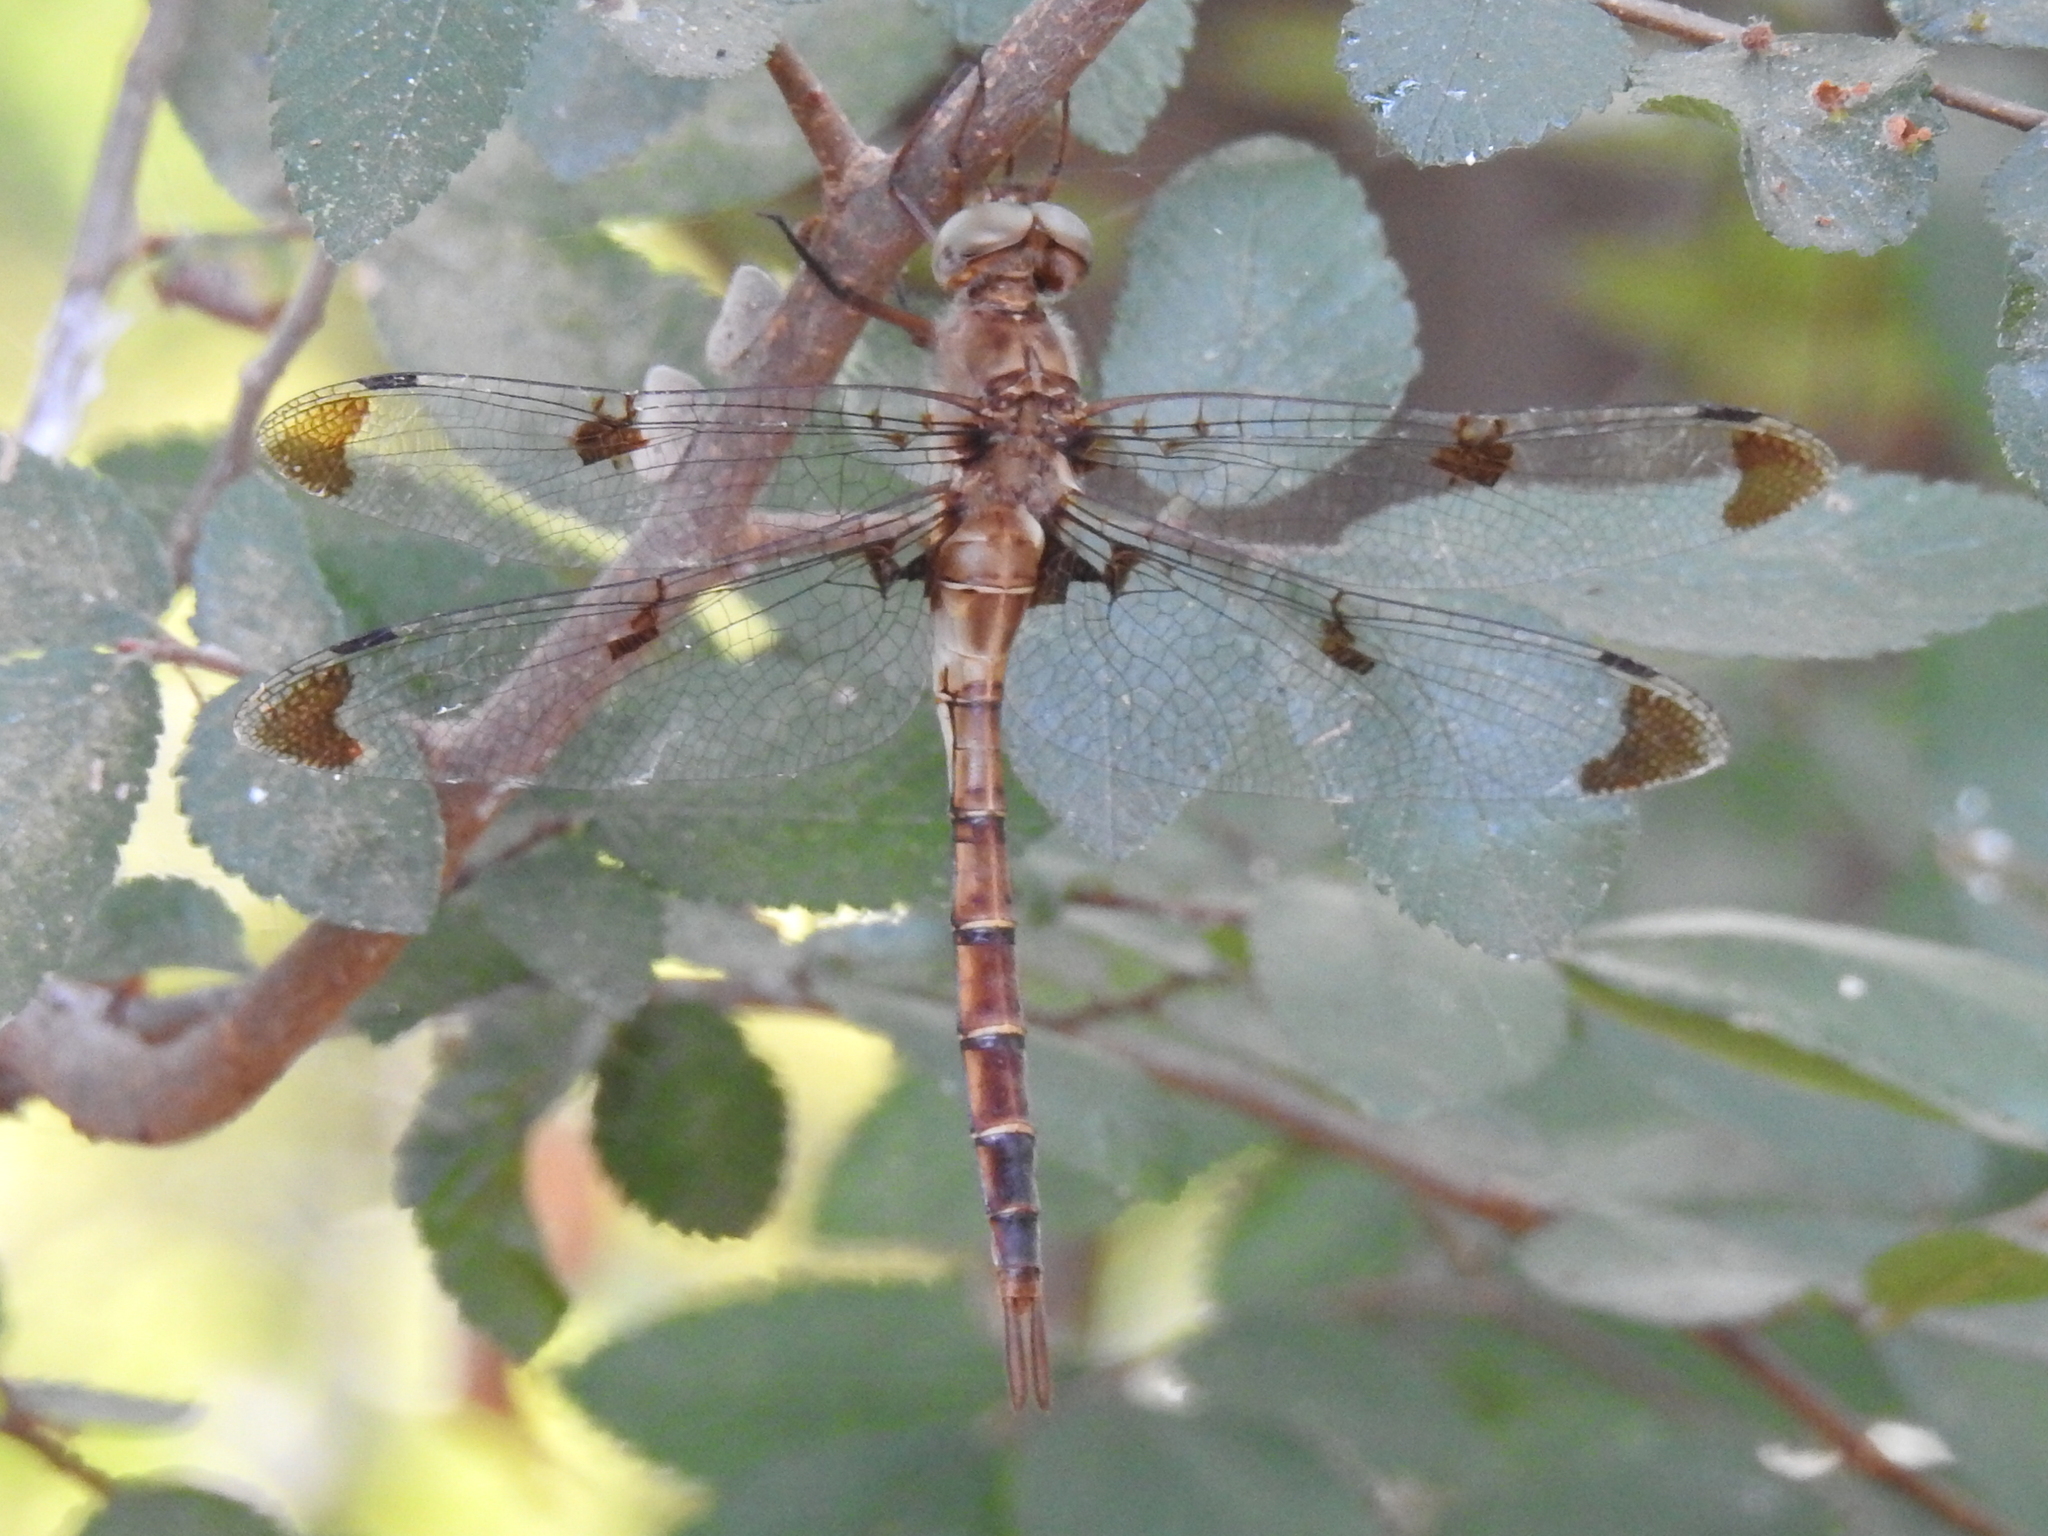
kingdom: Animalia
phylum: Arthropoda
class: Insecta
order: Odonata
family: Corduliidae
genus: Epitheca
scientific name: Epitheca princeps
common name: Prince baskettail
